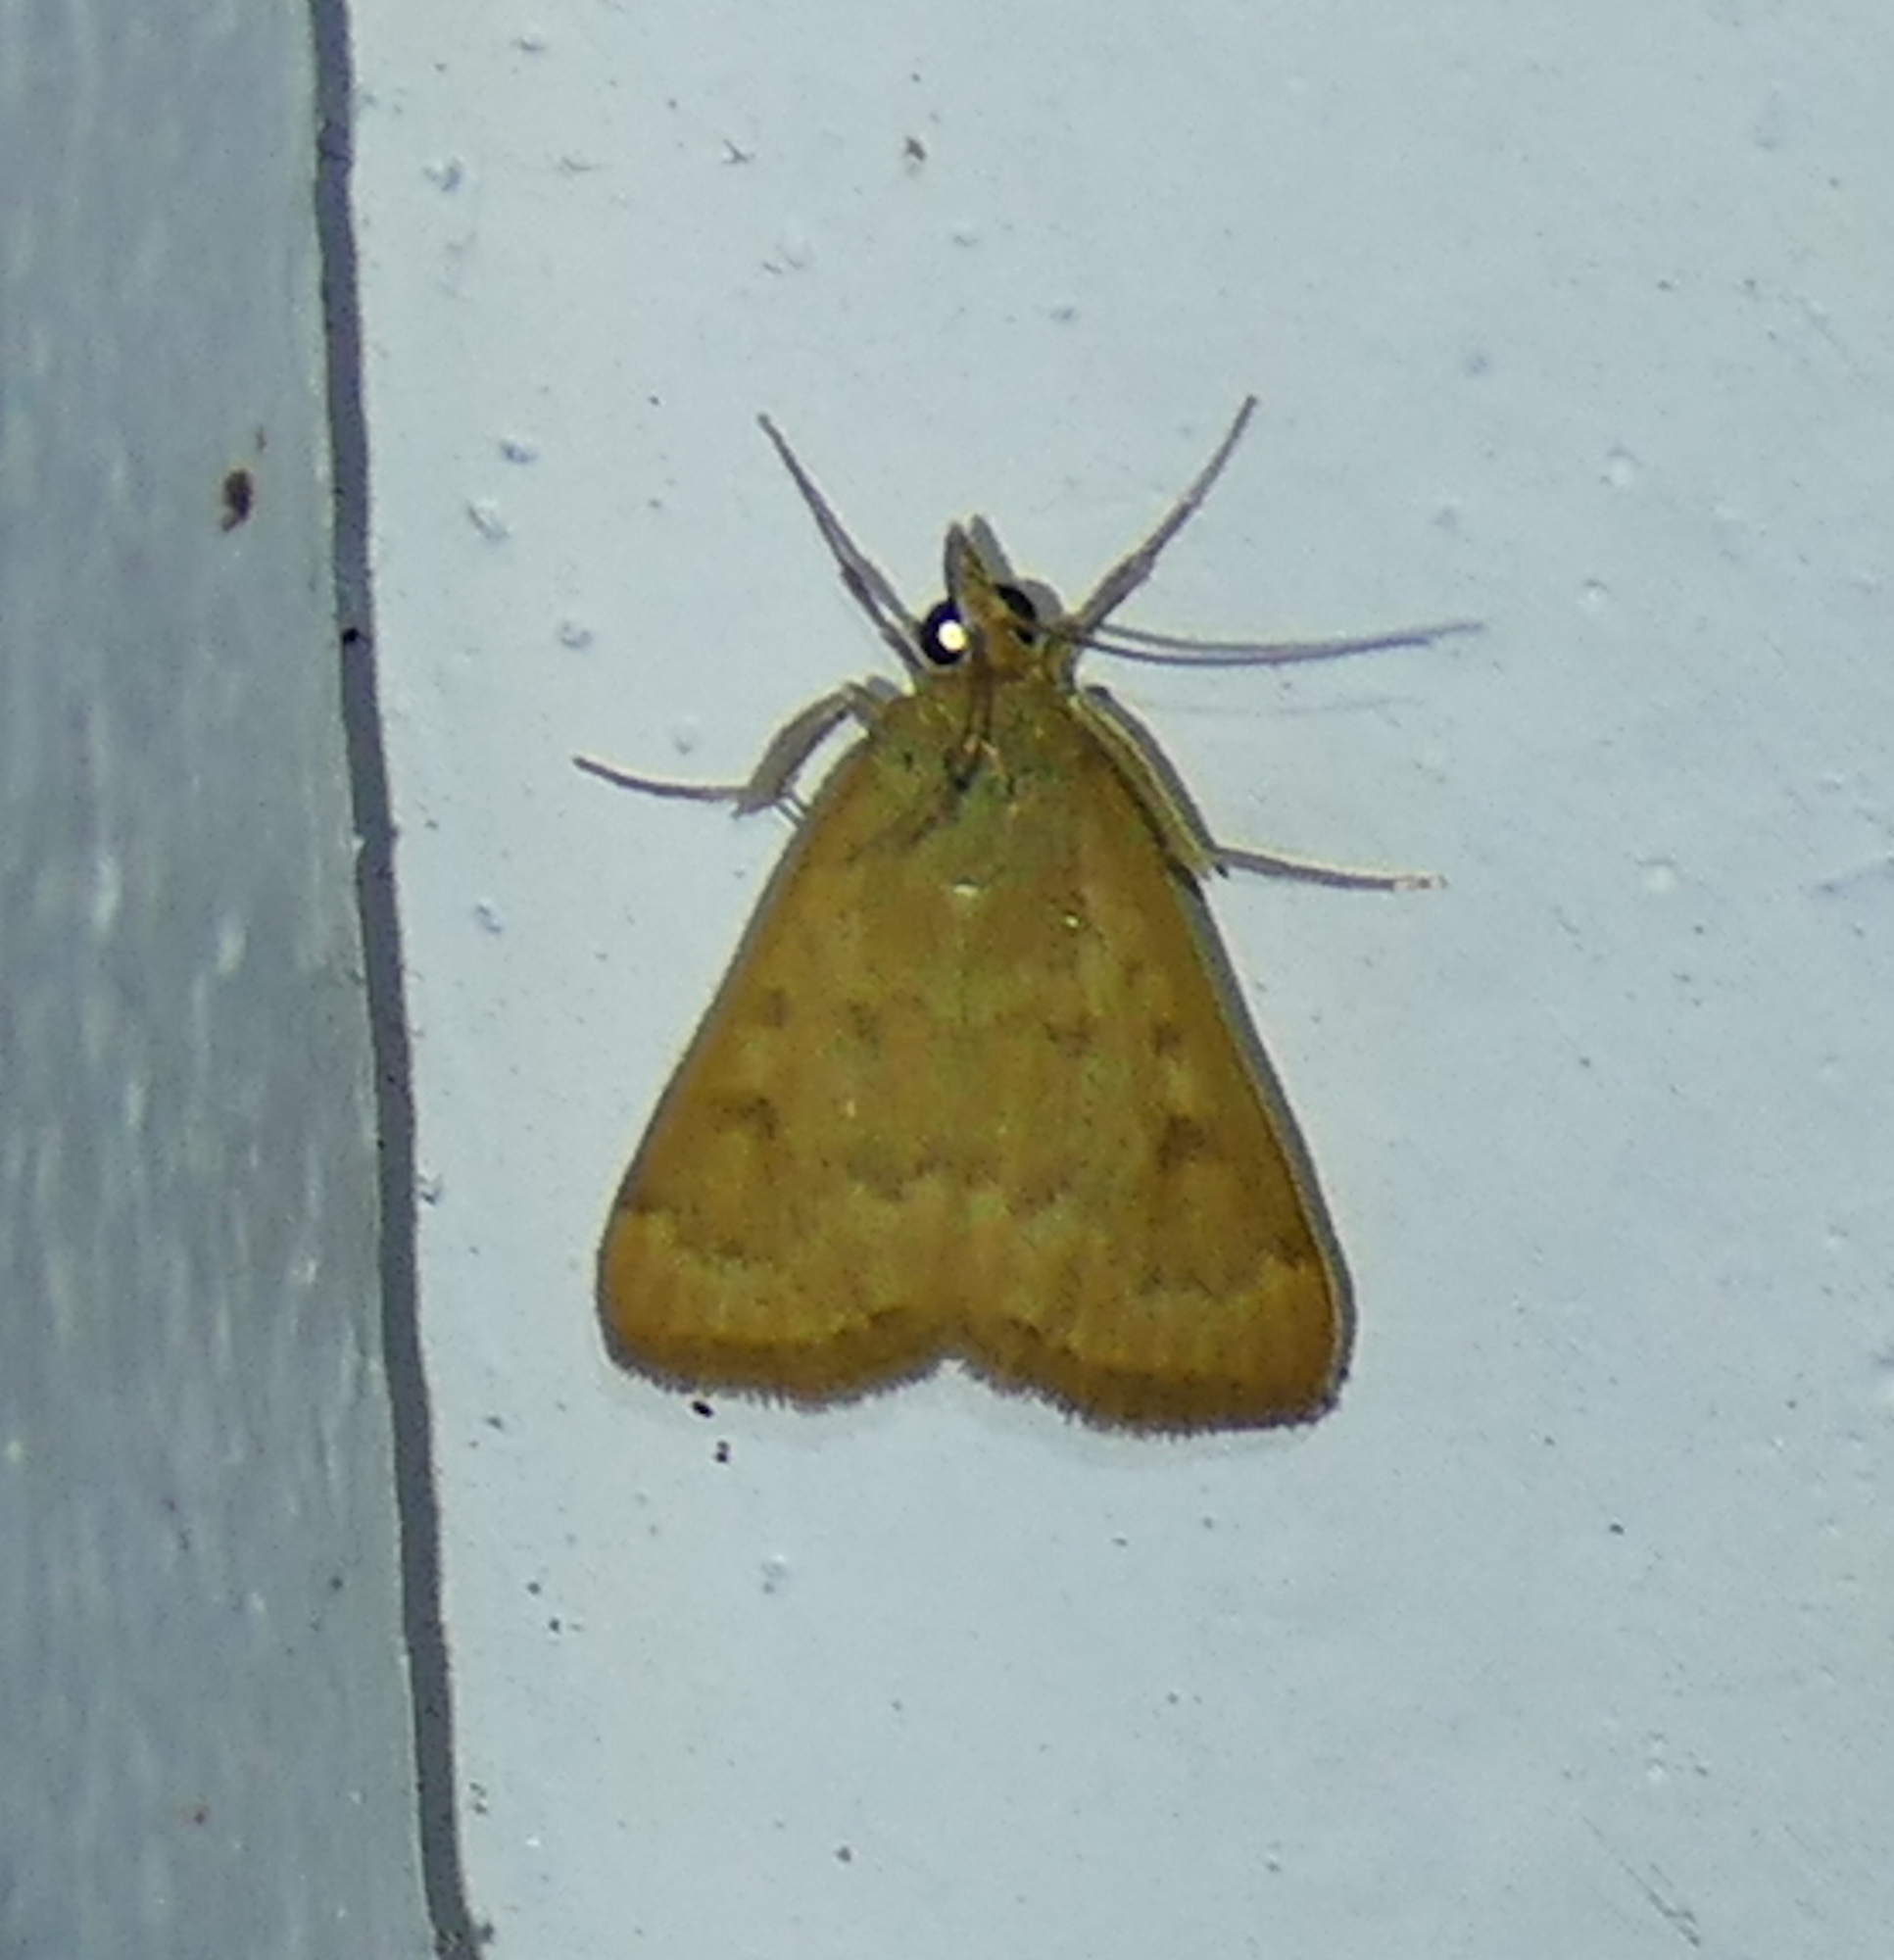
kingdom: Animalia
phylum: Arthropoda
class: Insecta
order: Lepidoptera
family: Crambidae
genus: Achyra
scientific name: Achyra rantalis
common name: Garden webworm
